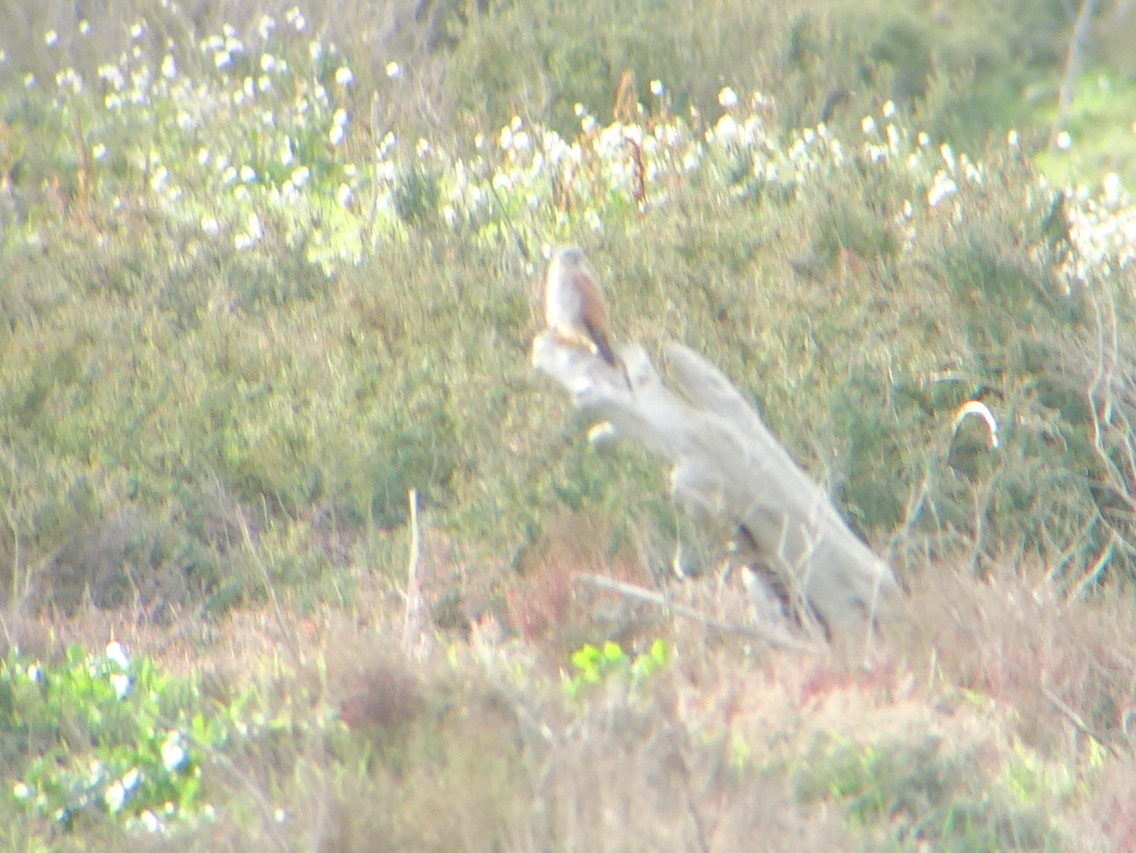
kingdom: Animalia
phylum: Chordata
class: Aves
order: Falconiformes
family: Falconidae
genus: Falco
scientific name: Falco tinnunculus
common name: Common kestrel
